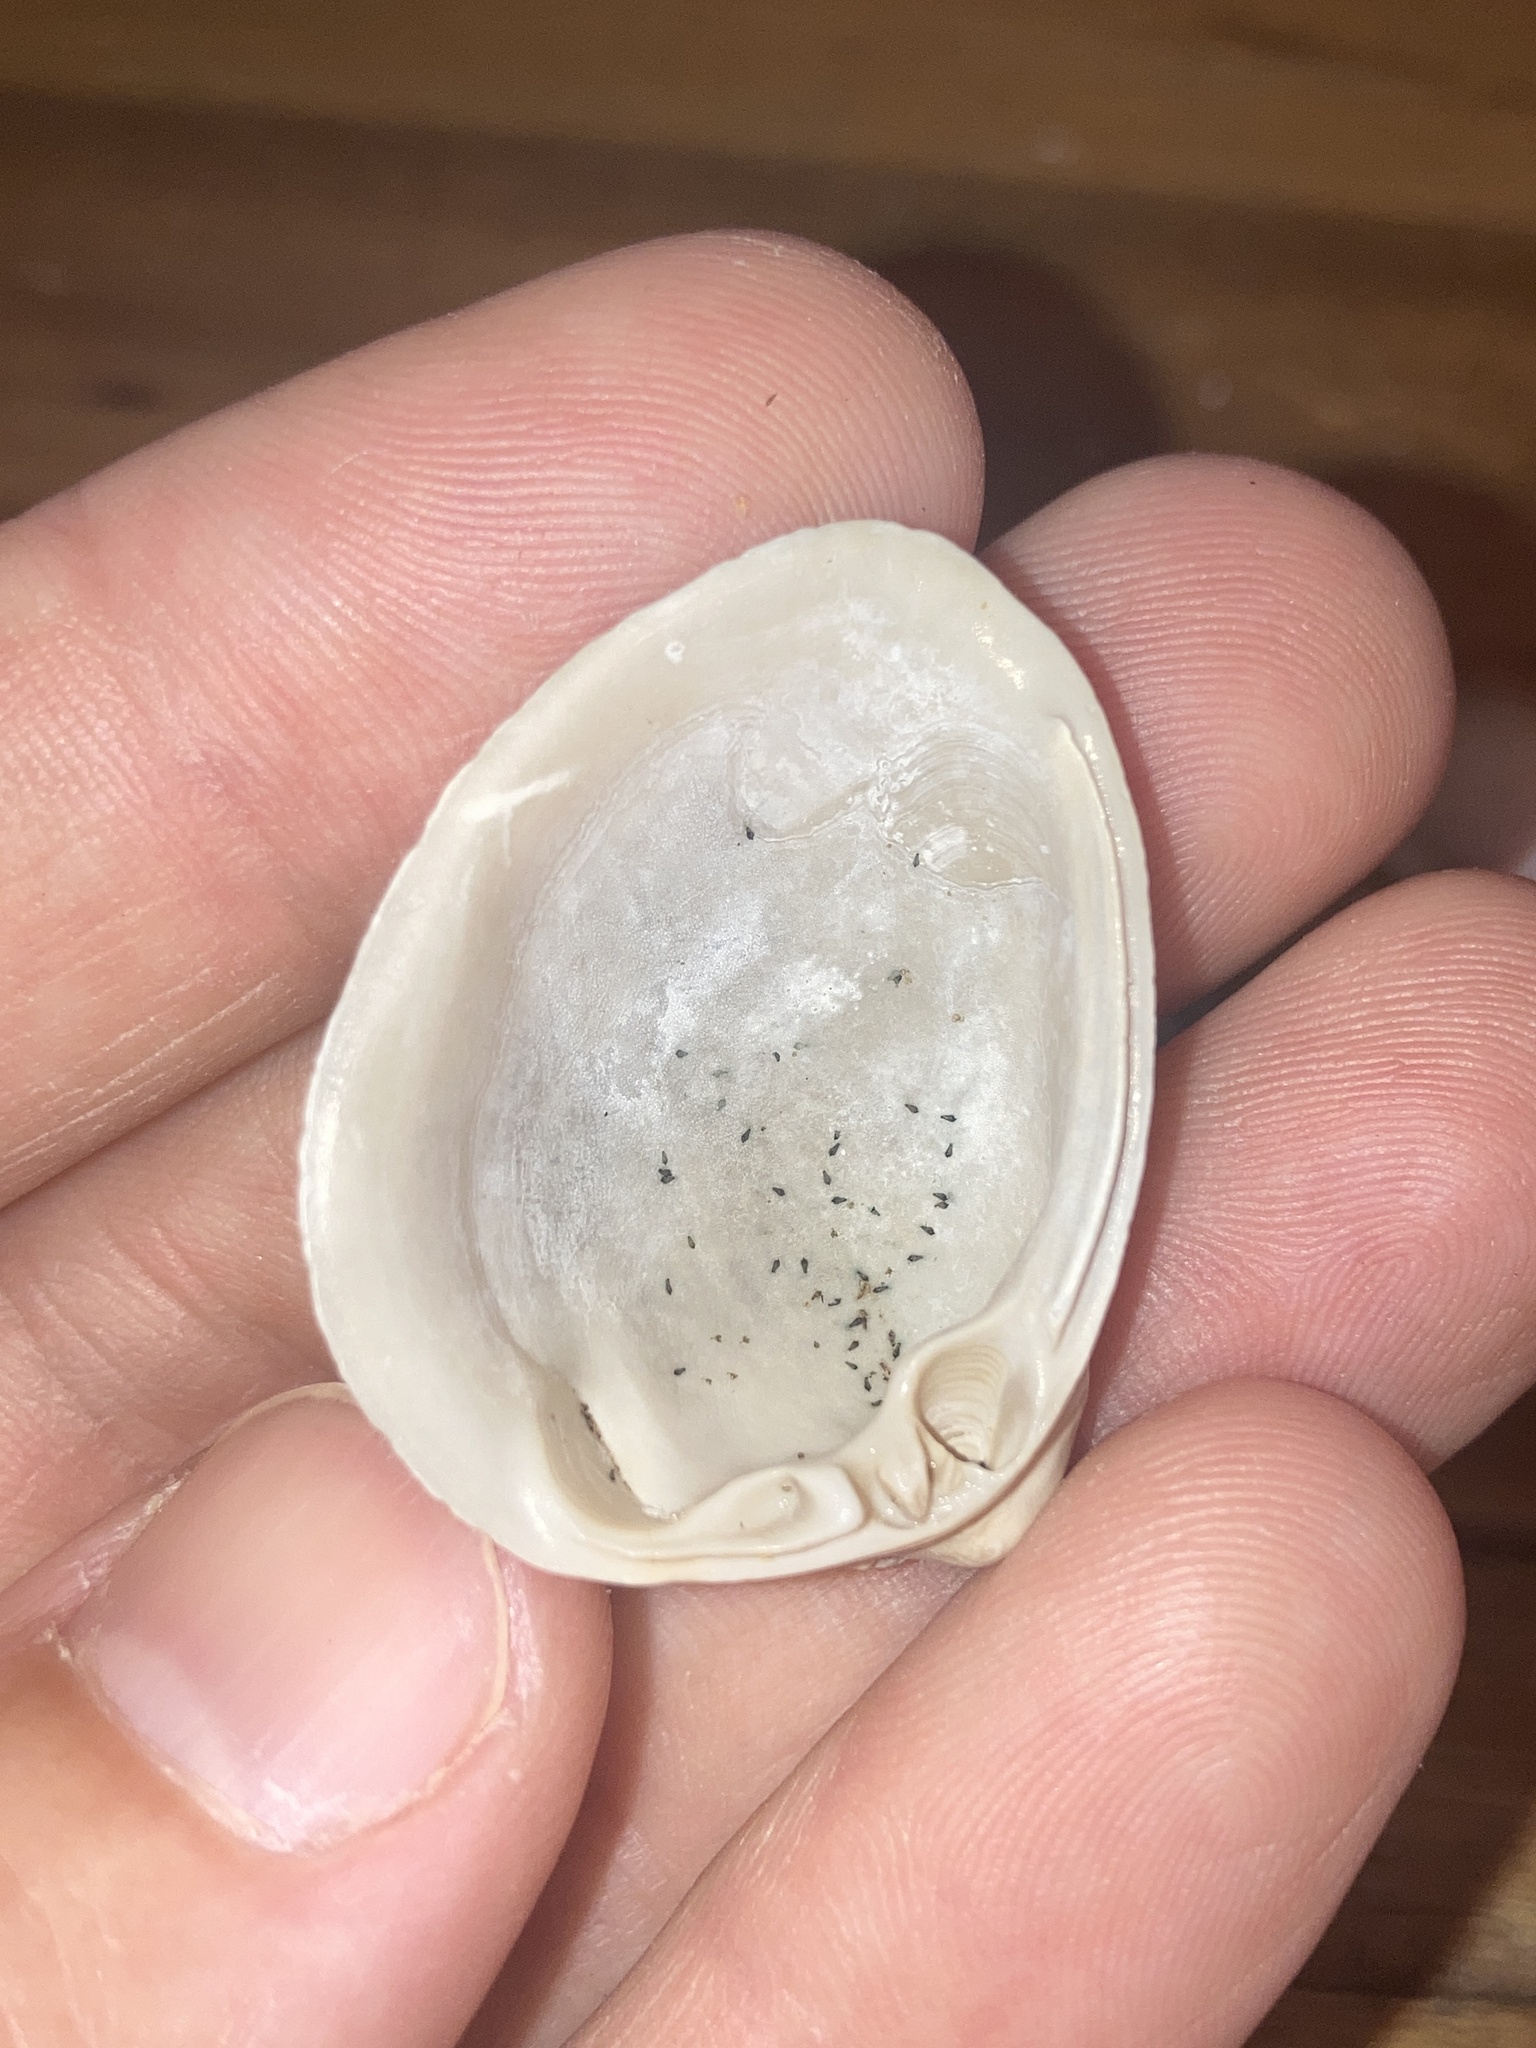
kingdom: Animalia
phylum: Mollusca
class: Bivalvia
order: Venerida
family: Mactridae
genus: Rangia
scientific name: Rangia cuneata
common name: Atlantic rangia
